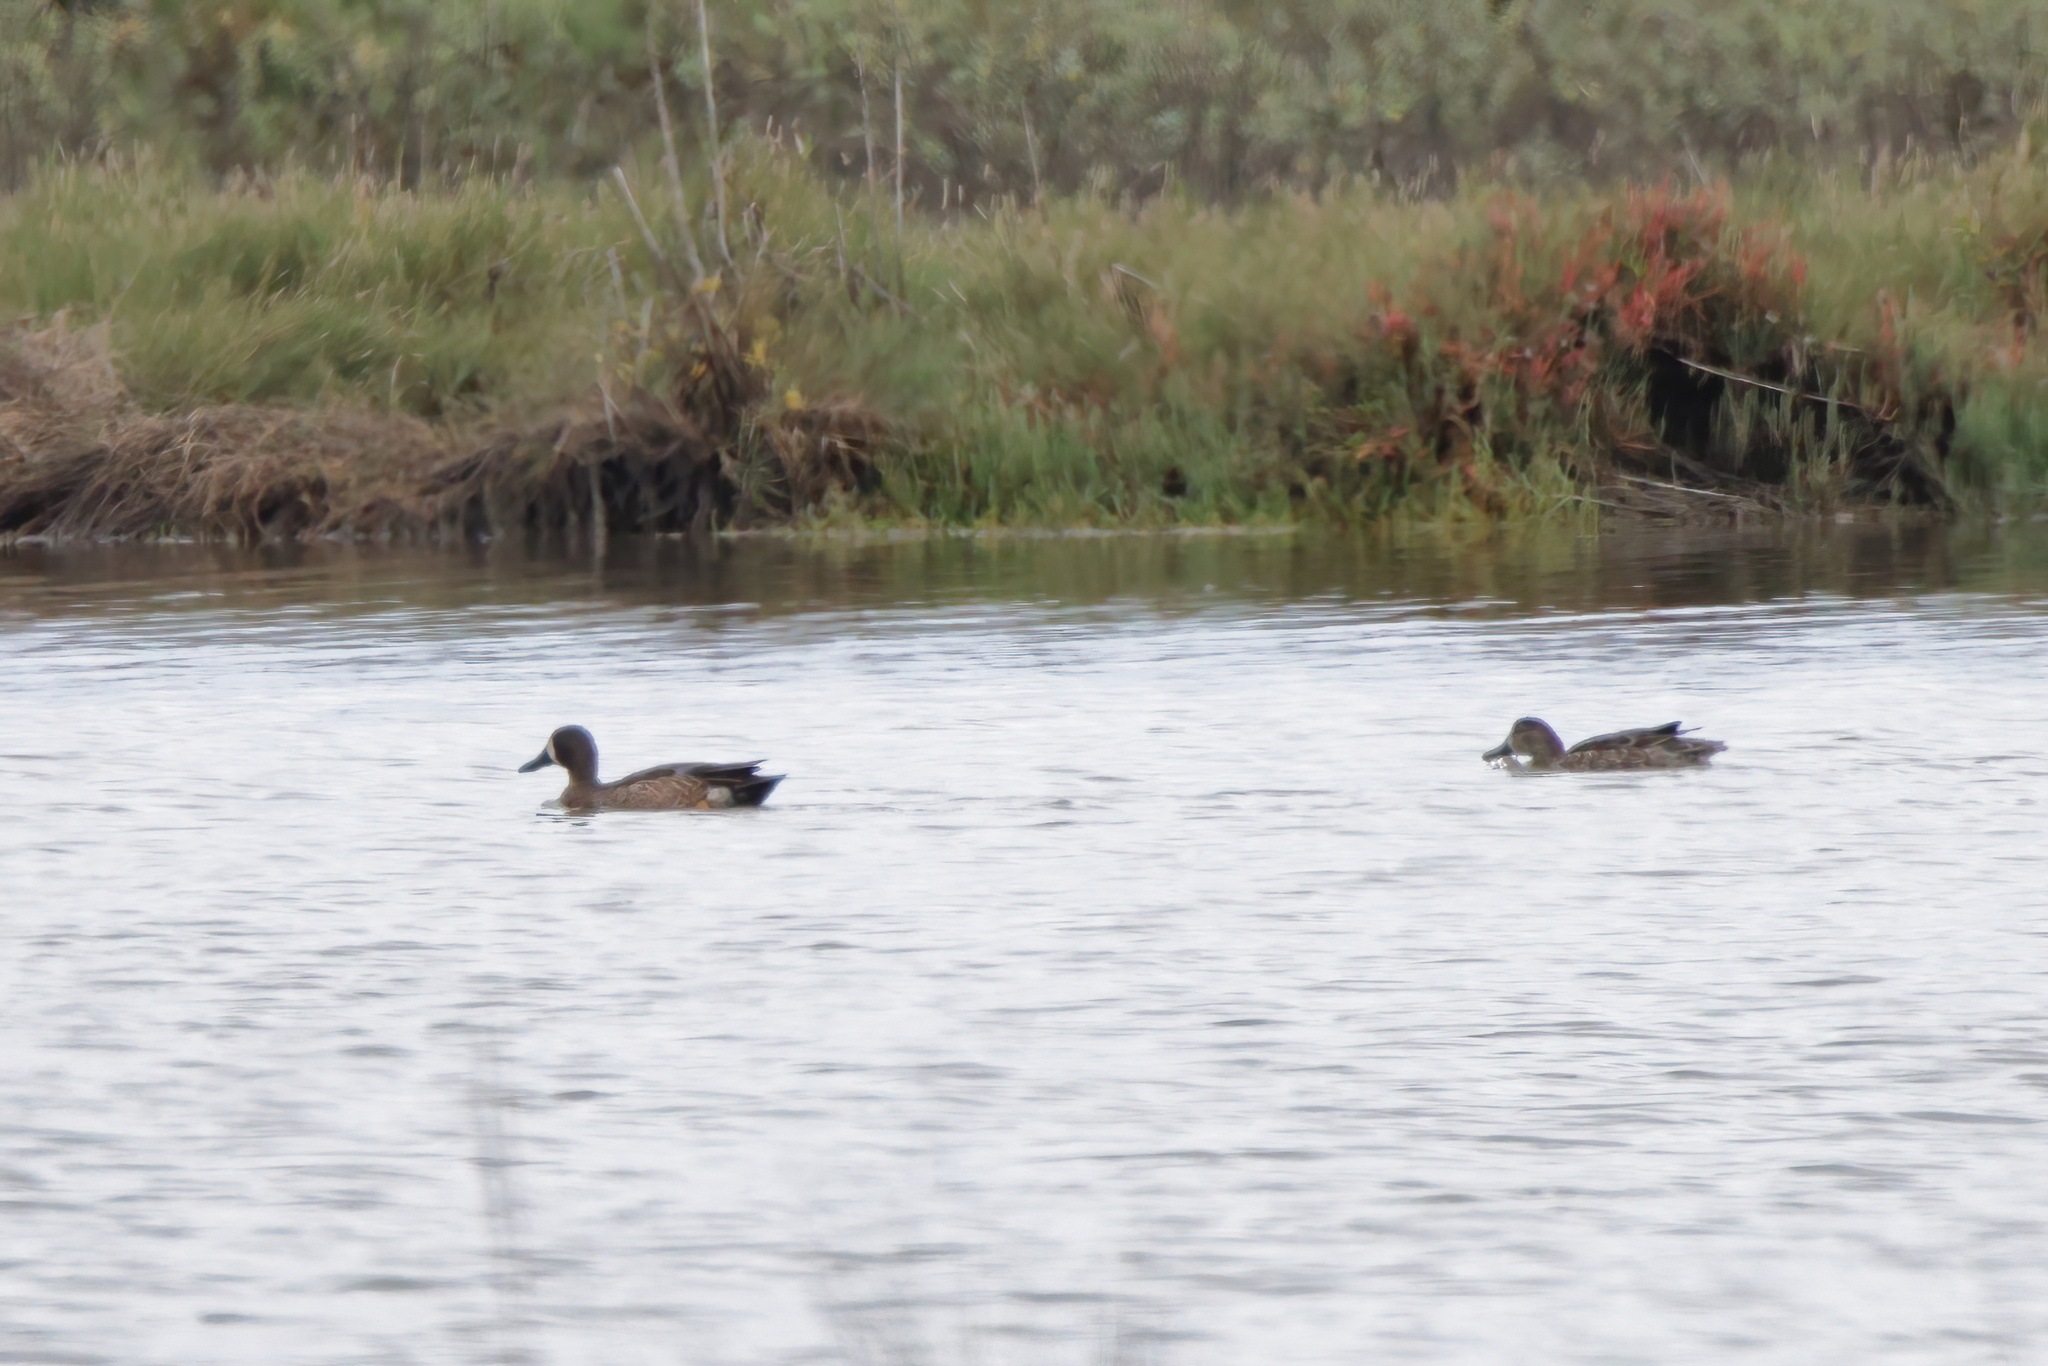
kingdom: Animalia
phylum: Chordata
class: Aves
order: Anseriformes
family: Anatidae
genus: Spatula
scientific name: Spatula discors
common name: Blue-winged teal
